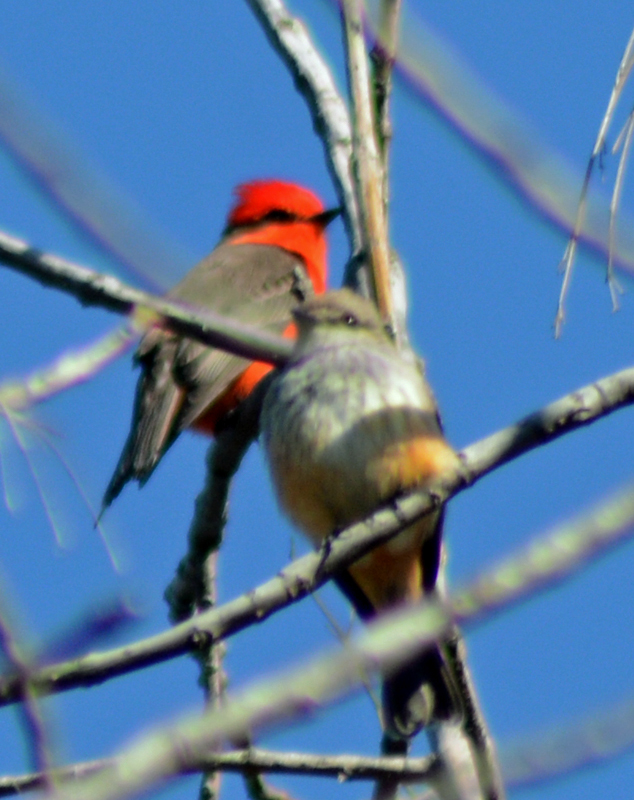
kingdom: Animalia
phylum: Chordata
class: Aves
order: Passeriformes
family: Tyrannidae
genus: Pyrocephalus
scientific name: Pyrocephalus rubinus
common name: Vermilion flycatcher
